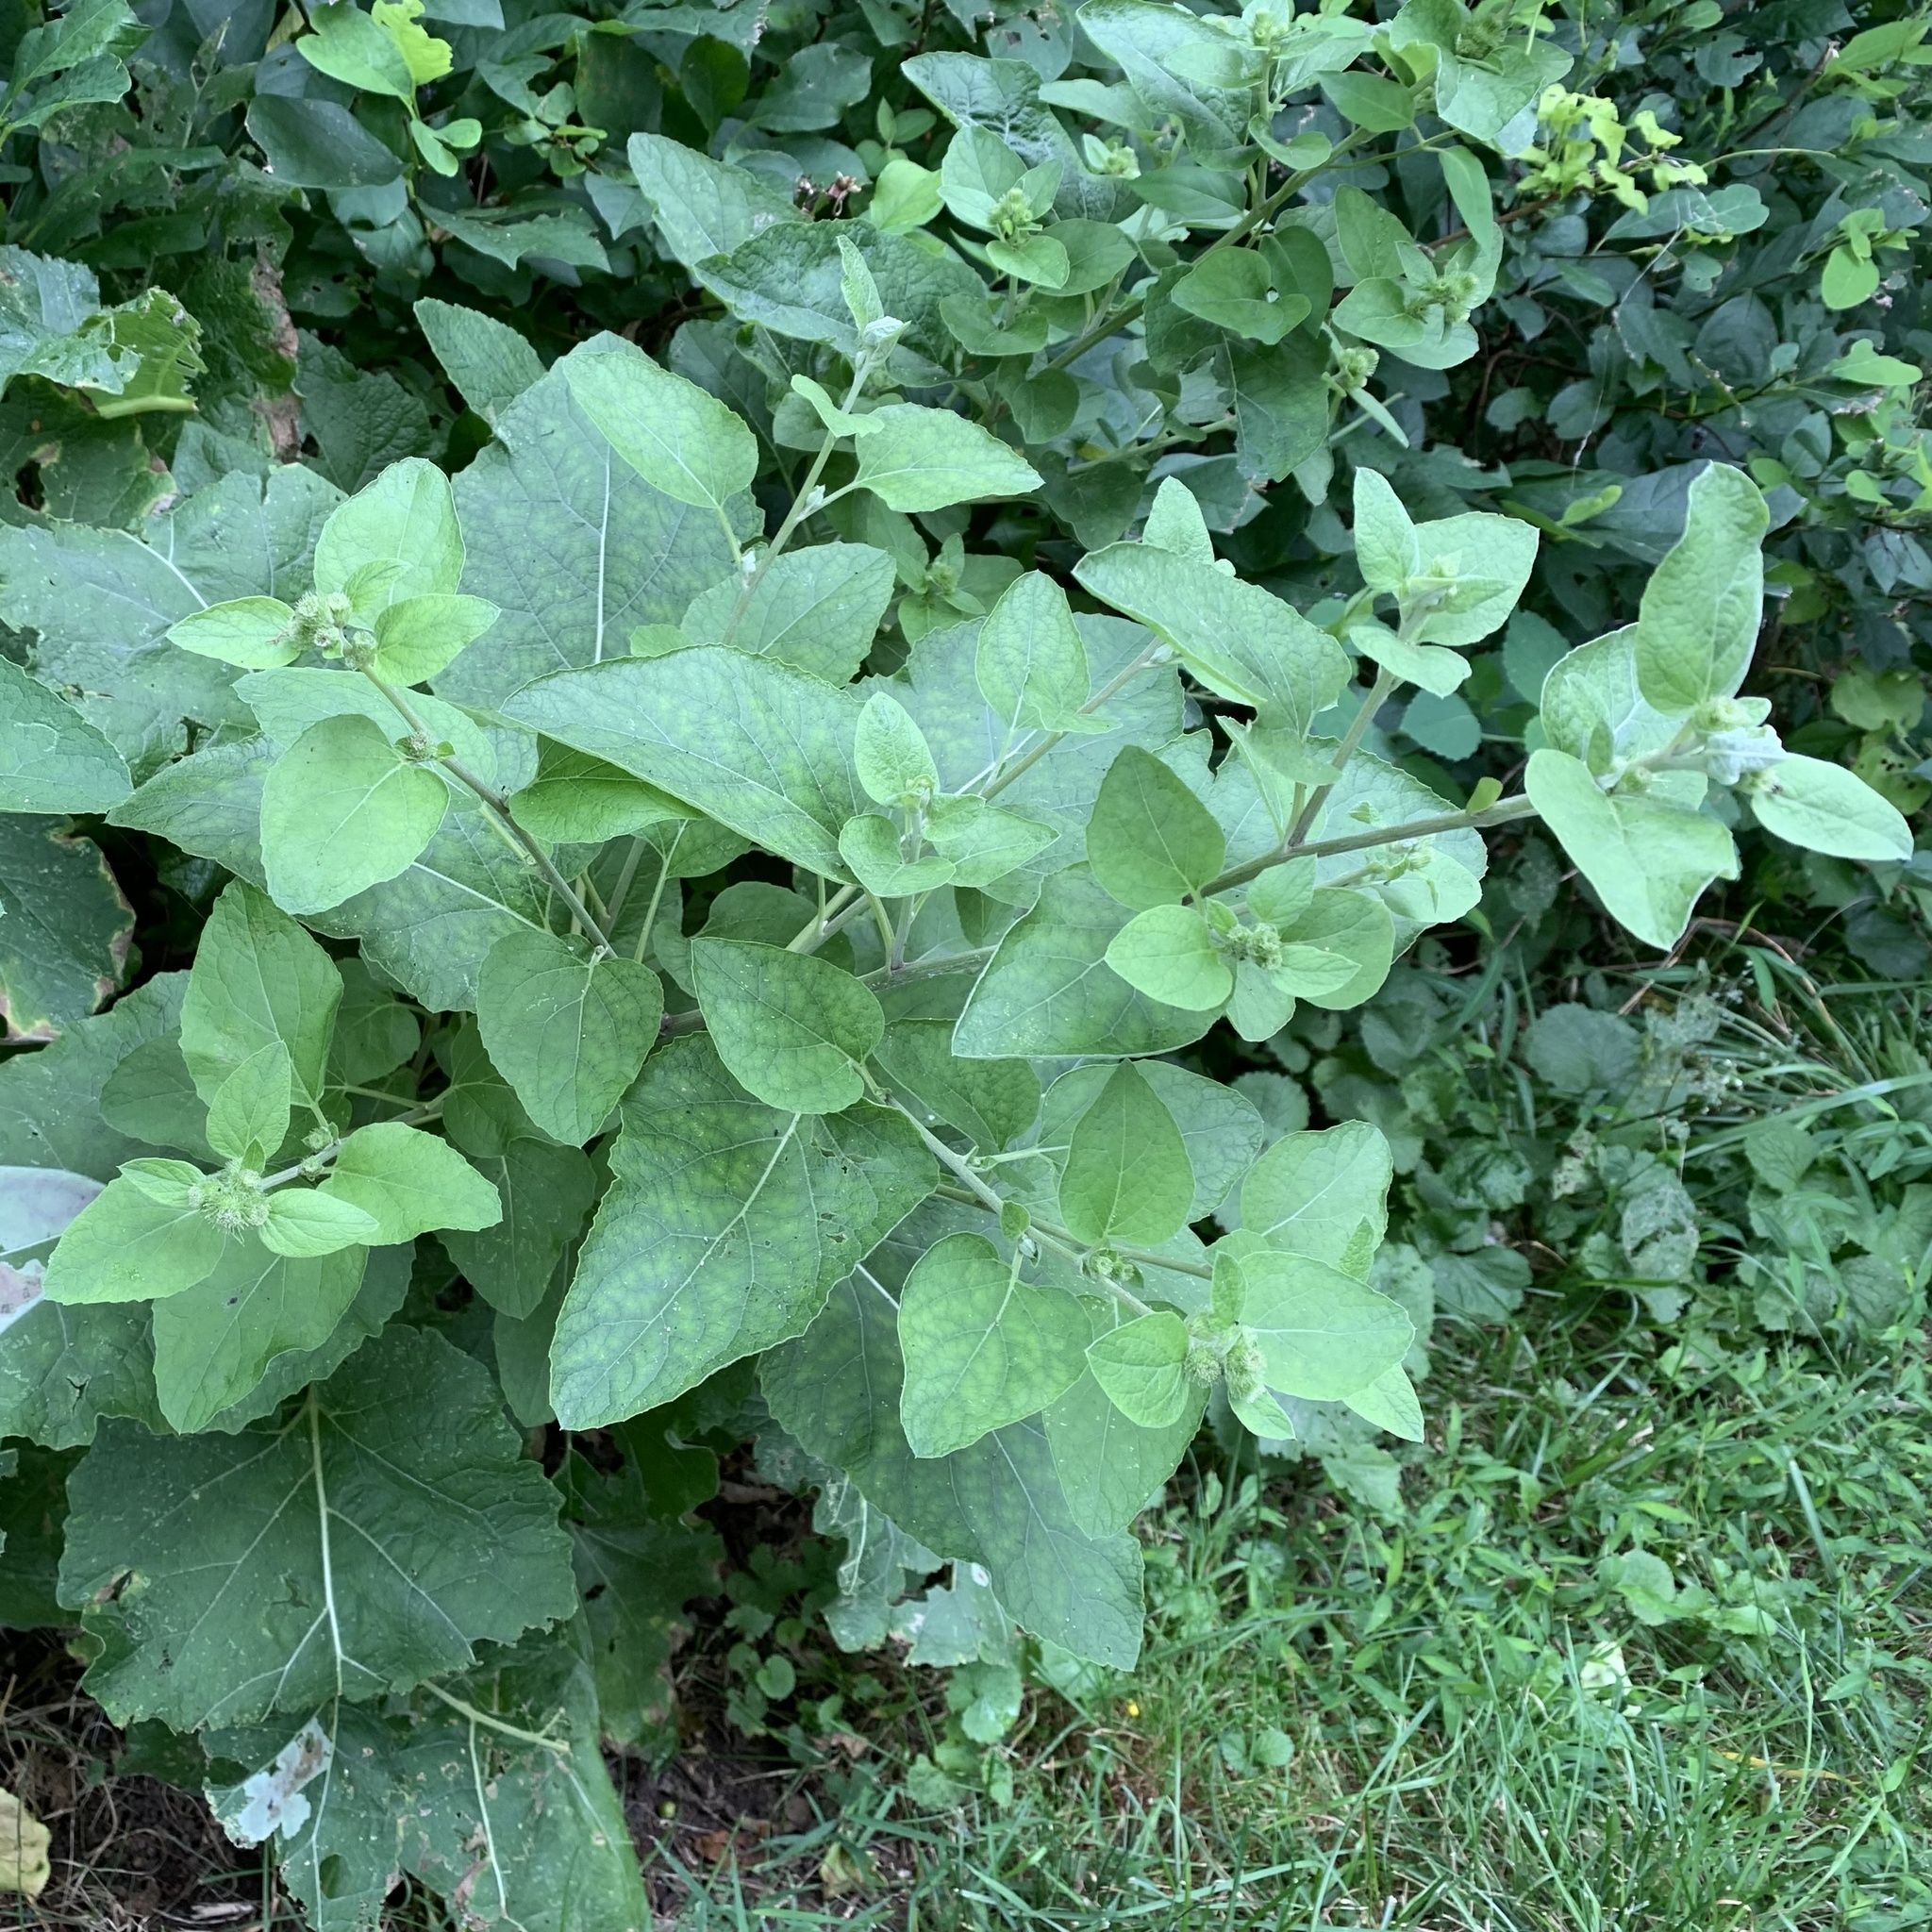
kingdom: Plantae
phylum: Tracheophyta
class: Magnoliopsida
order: Asterales
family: Asteraceae
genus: Arctium
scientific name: Arctium
